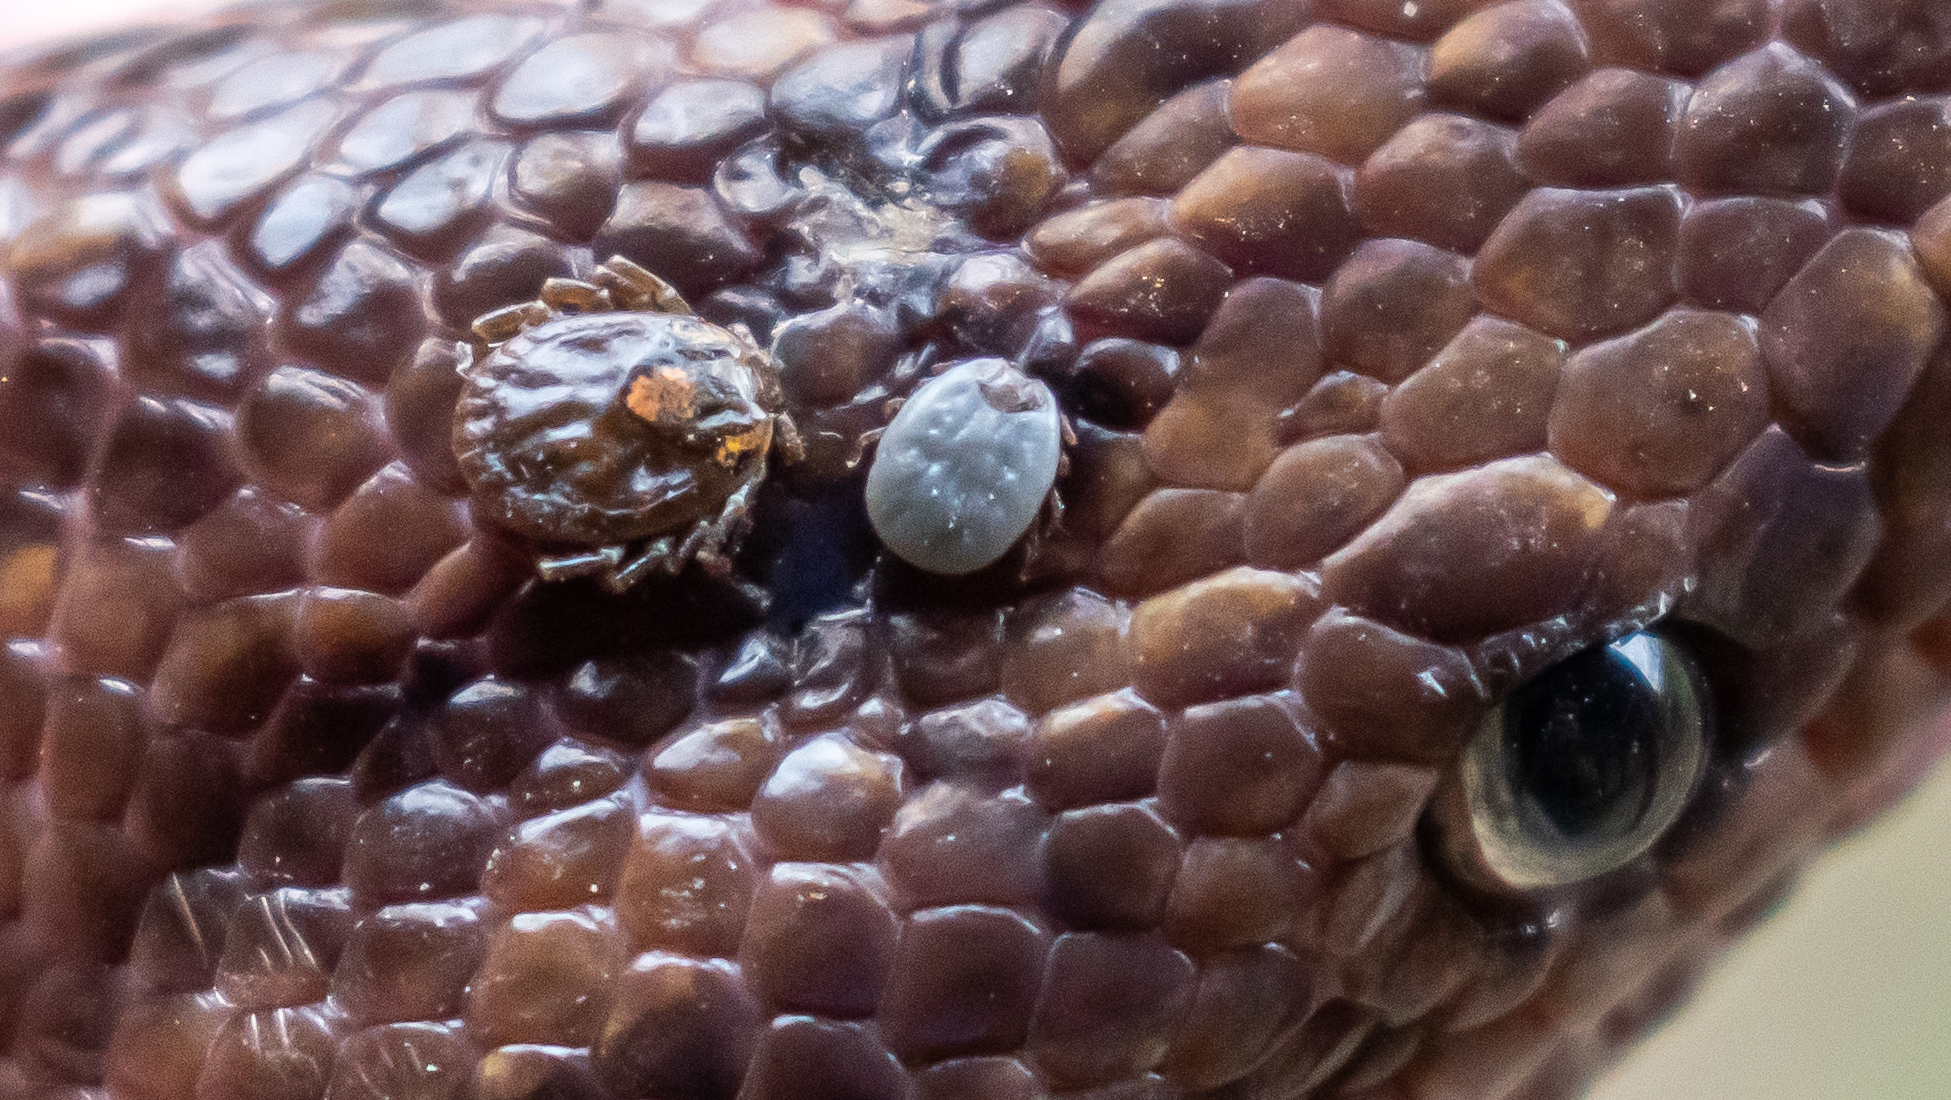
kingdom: Animalia
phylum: Arthropoda
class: Arachnida
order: Ixodida
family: Ixodidae
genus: Amblyomma
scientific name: Amblyomma dissimile
